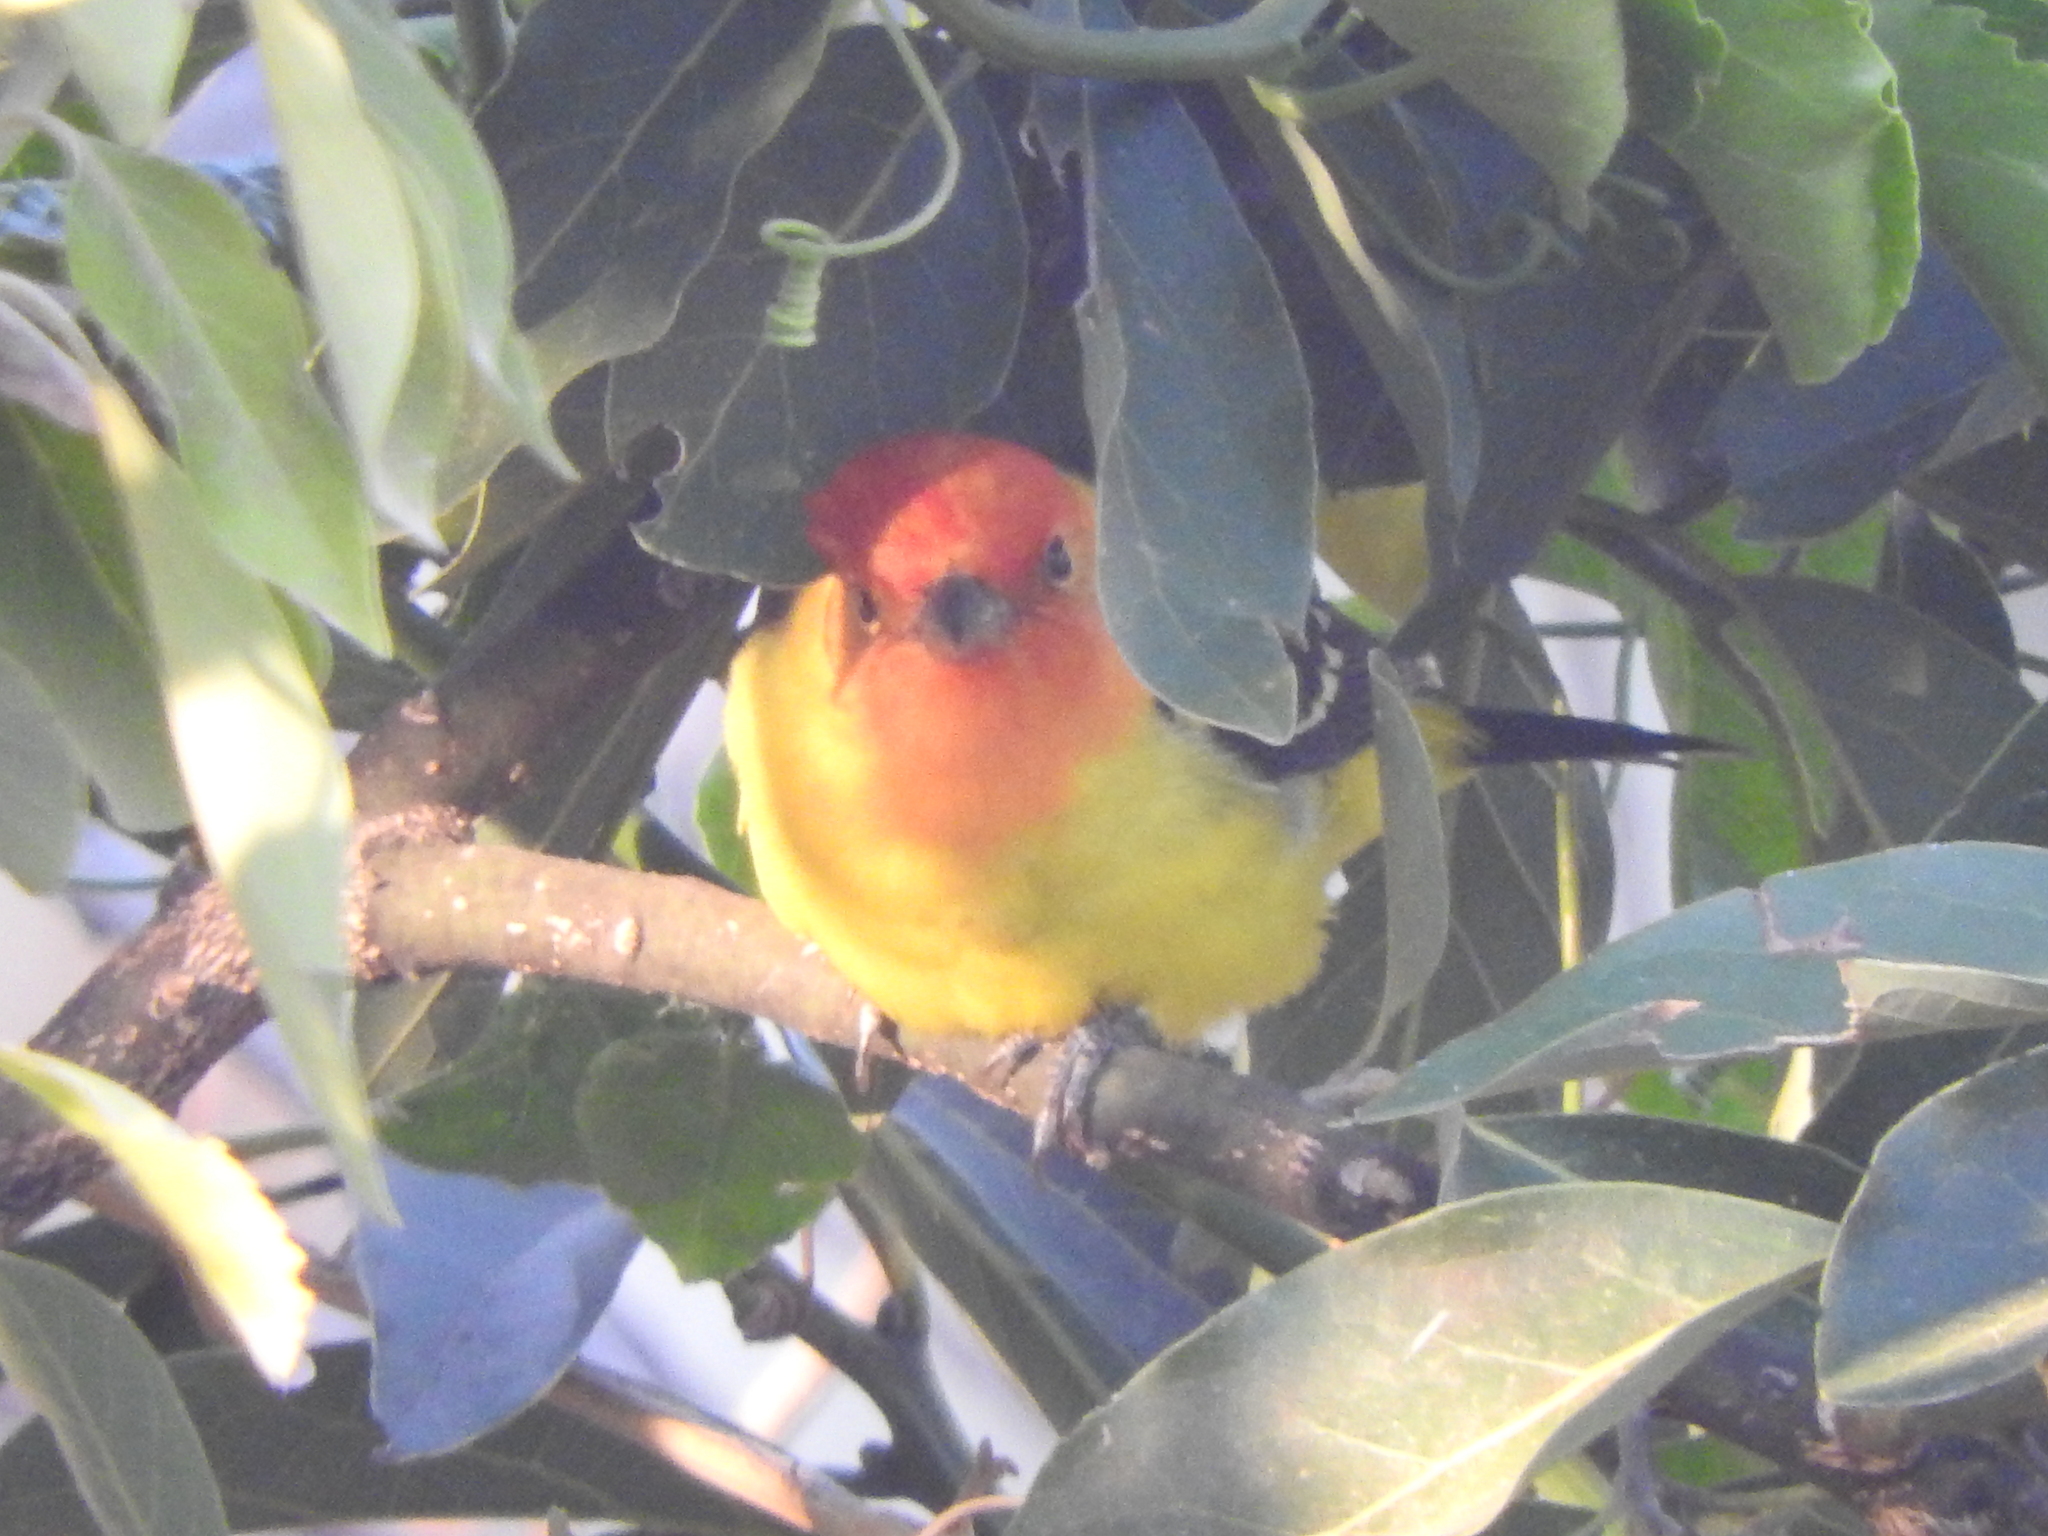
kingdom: Animalia
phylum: Chordata
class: Aves
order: Passeriformes
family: Cardinalidae
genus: Piranga
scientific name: Piranga ludoviciana
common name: Western tanager
